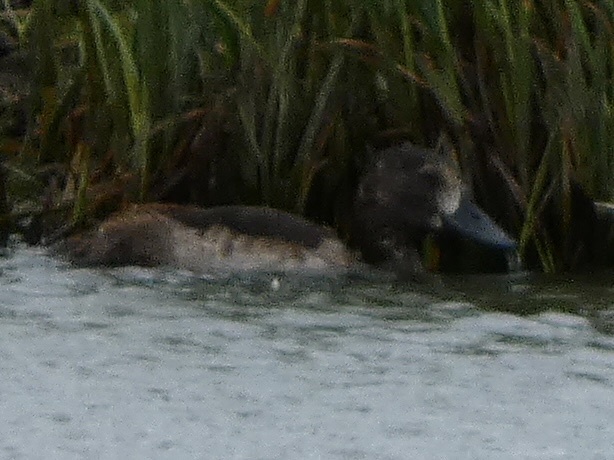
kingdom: Animalia
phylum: Chordata
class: Aves
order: Anseriformes
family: Anatidae
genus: Aythya
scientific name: Aythya fuligula
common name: Tufted duck
